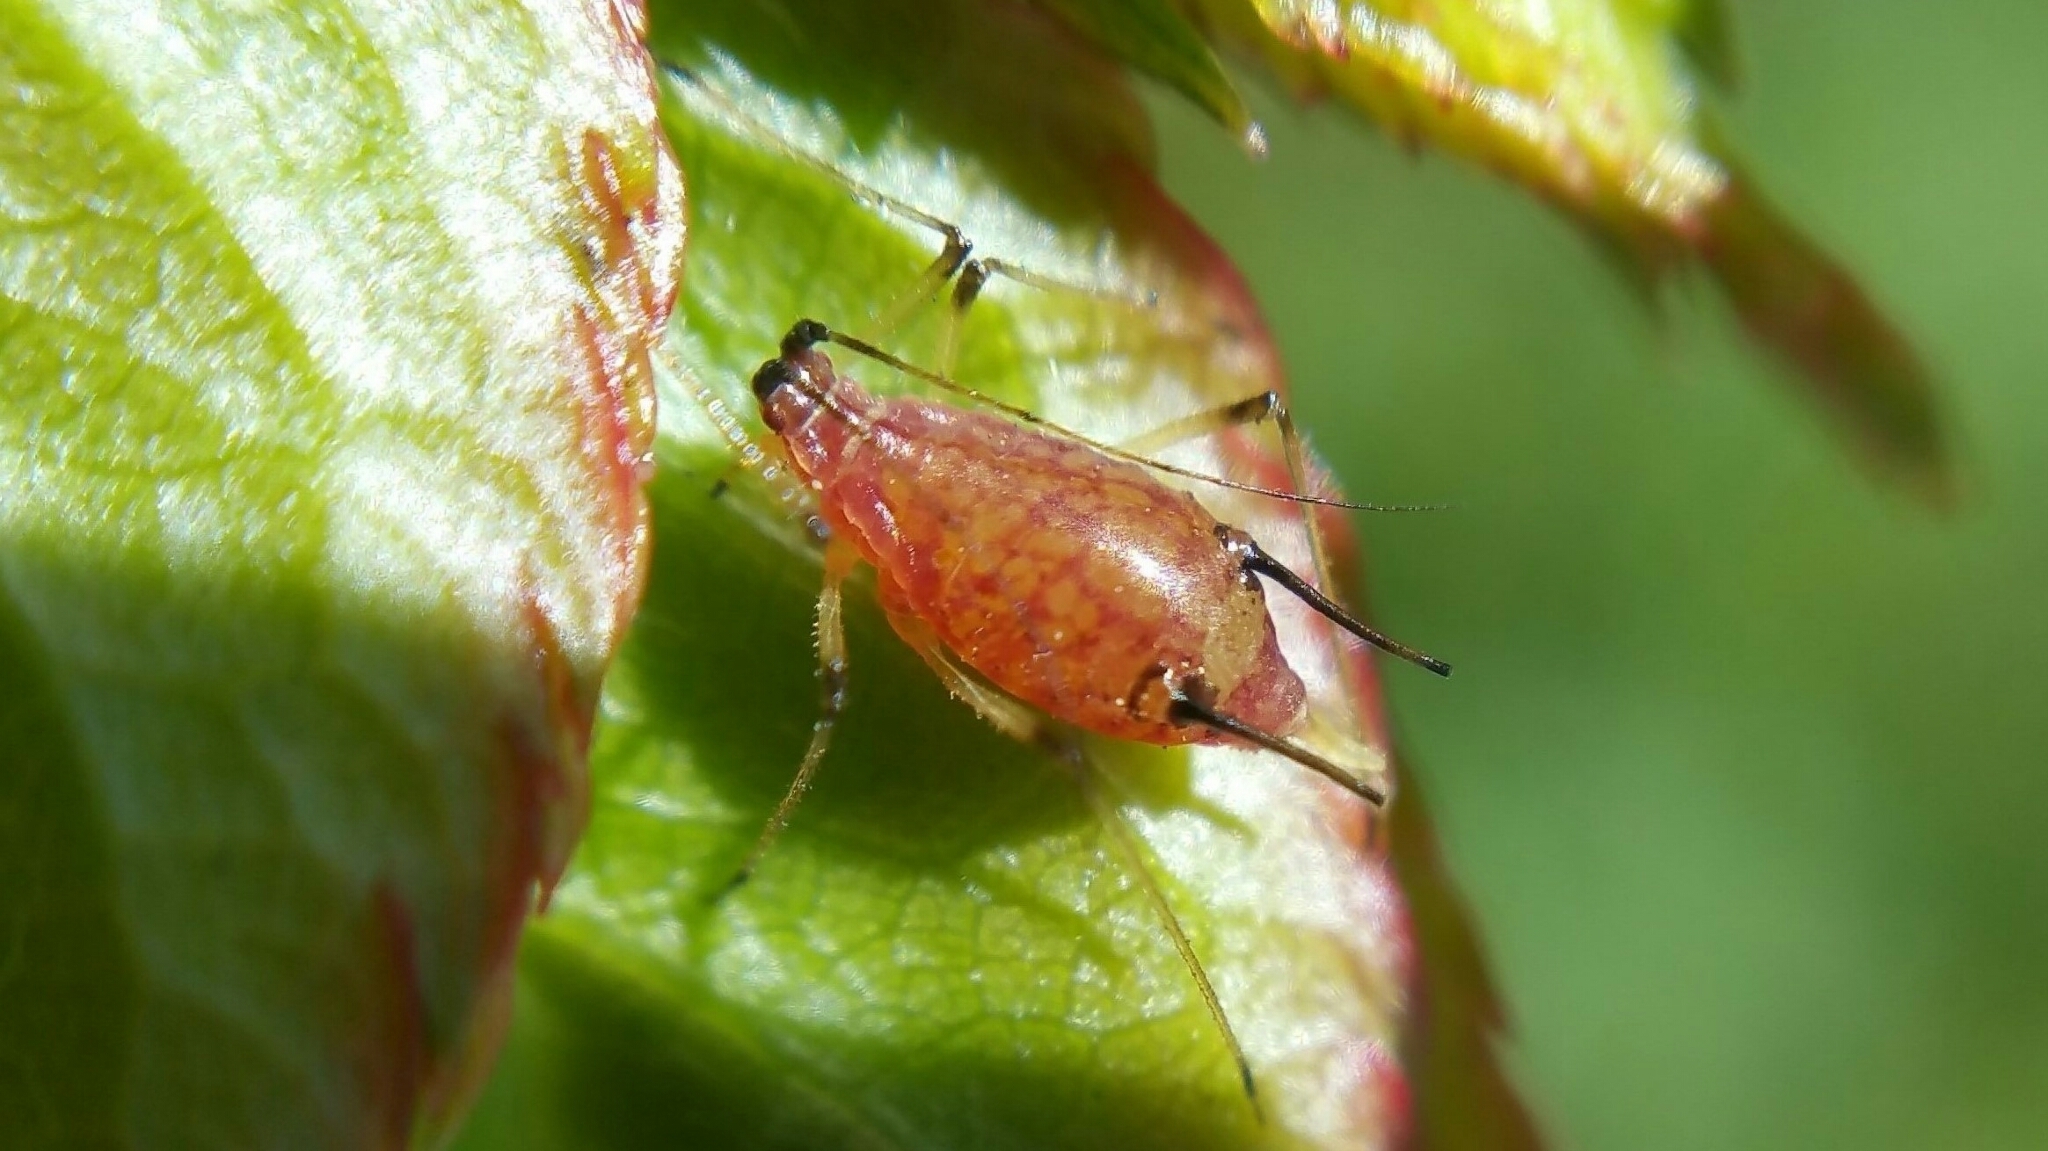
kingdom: Animalia
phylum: Arthropoda
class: Insecta
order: Hemiptera
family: Aphididae
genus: Macrosiphum
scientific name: Macrosiphum rosae
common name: Rose aphid
